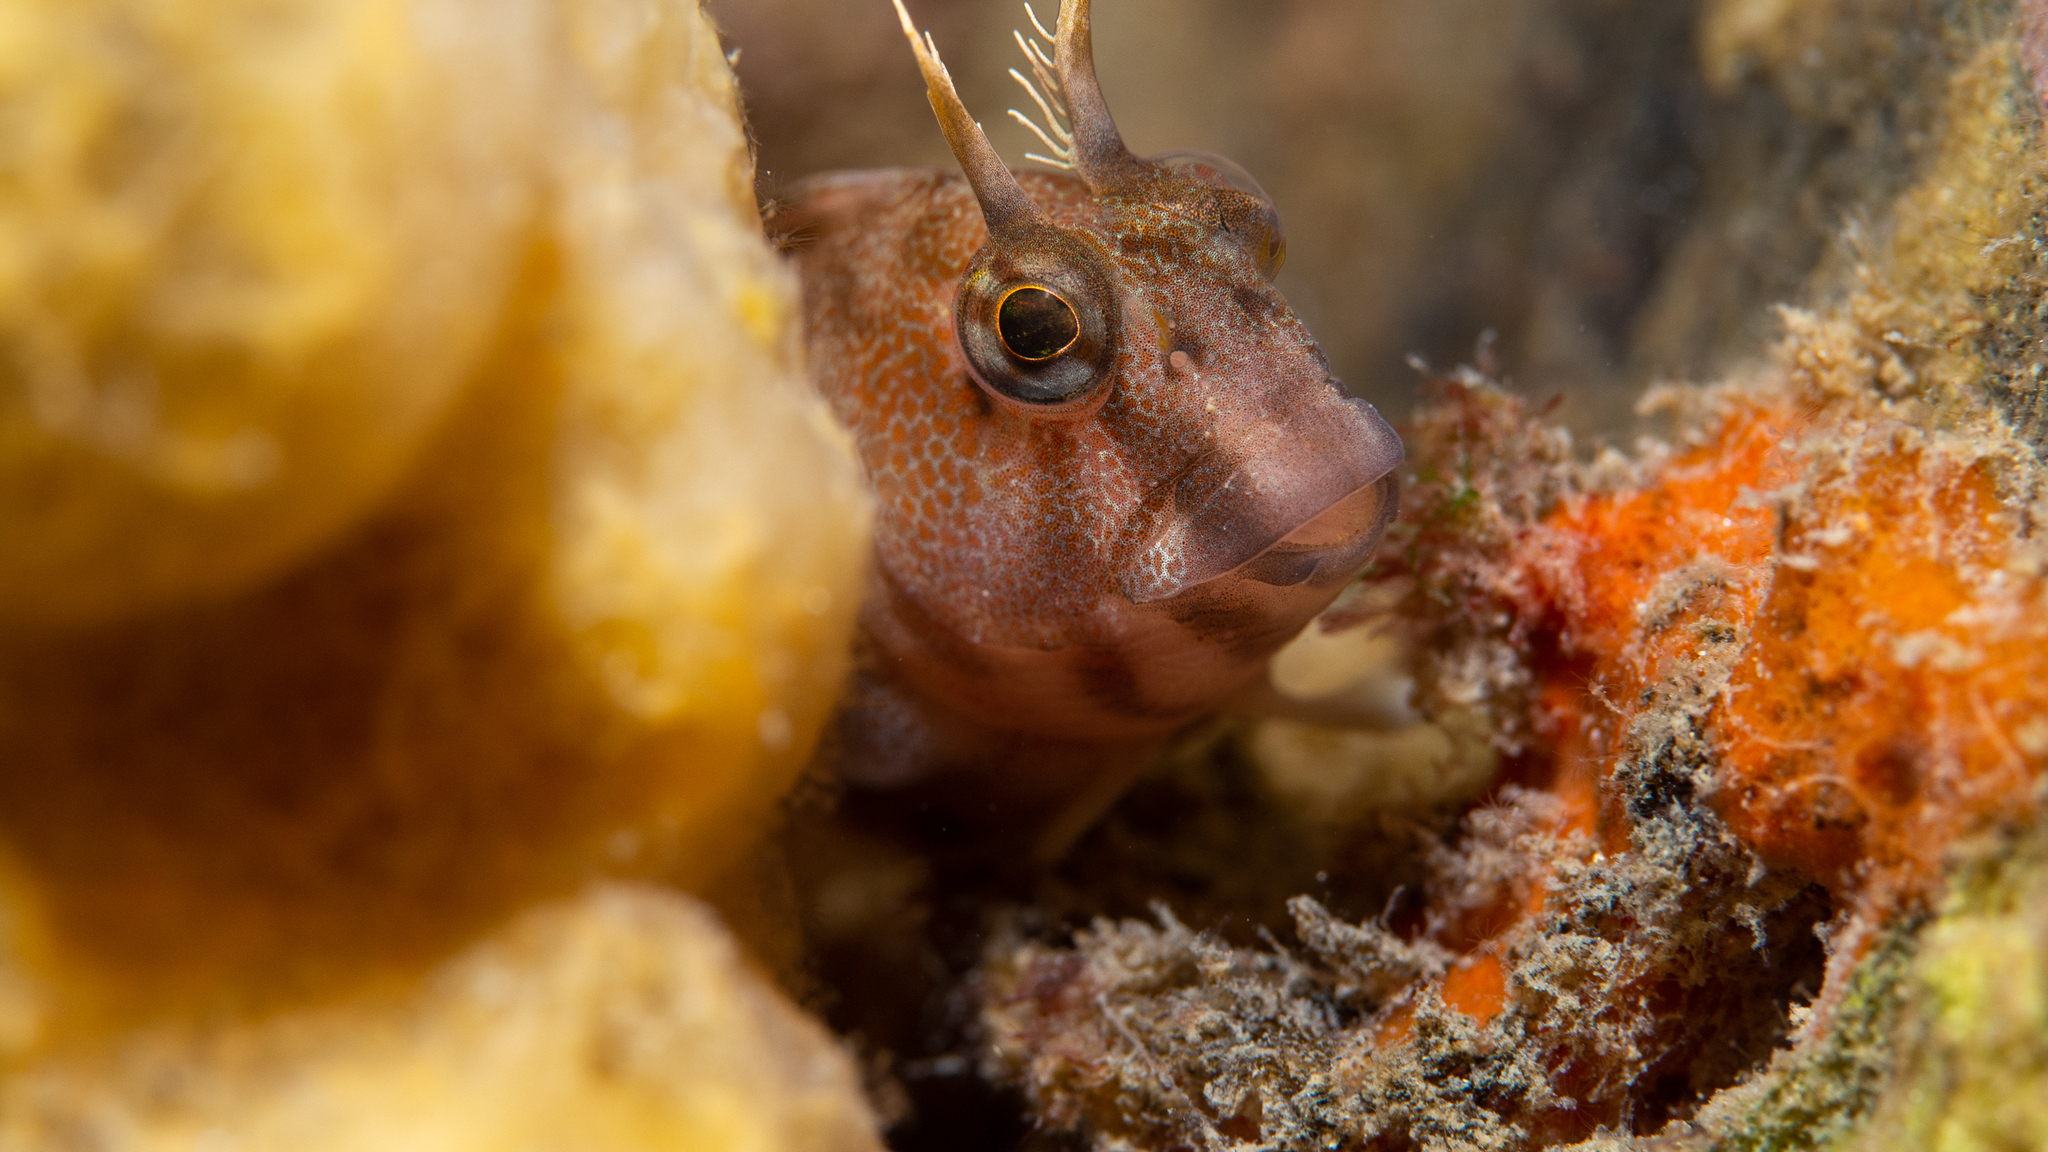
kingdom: Animalia
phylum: Chordata
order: Perciformes
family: Blenniidae
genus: Parablennius
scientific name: Parablennius tasmanianus
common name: Tasmanian blenny
